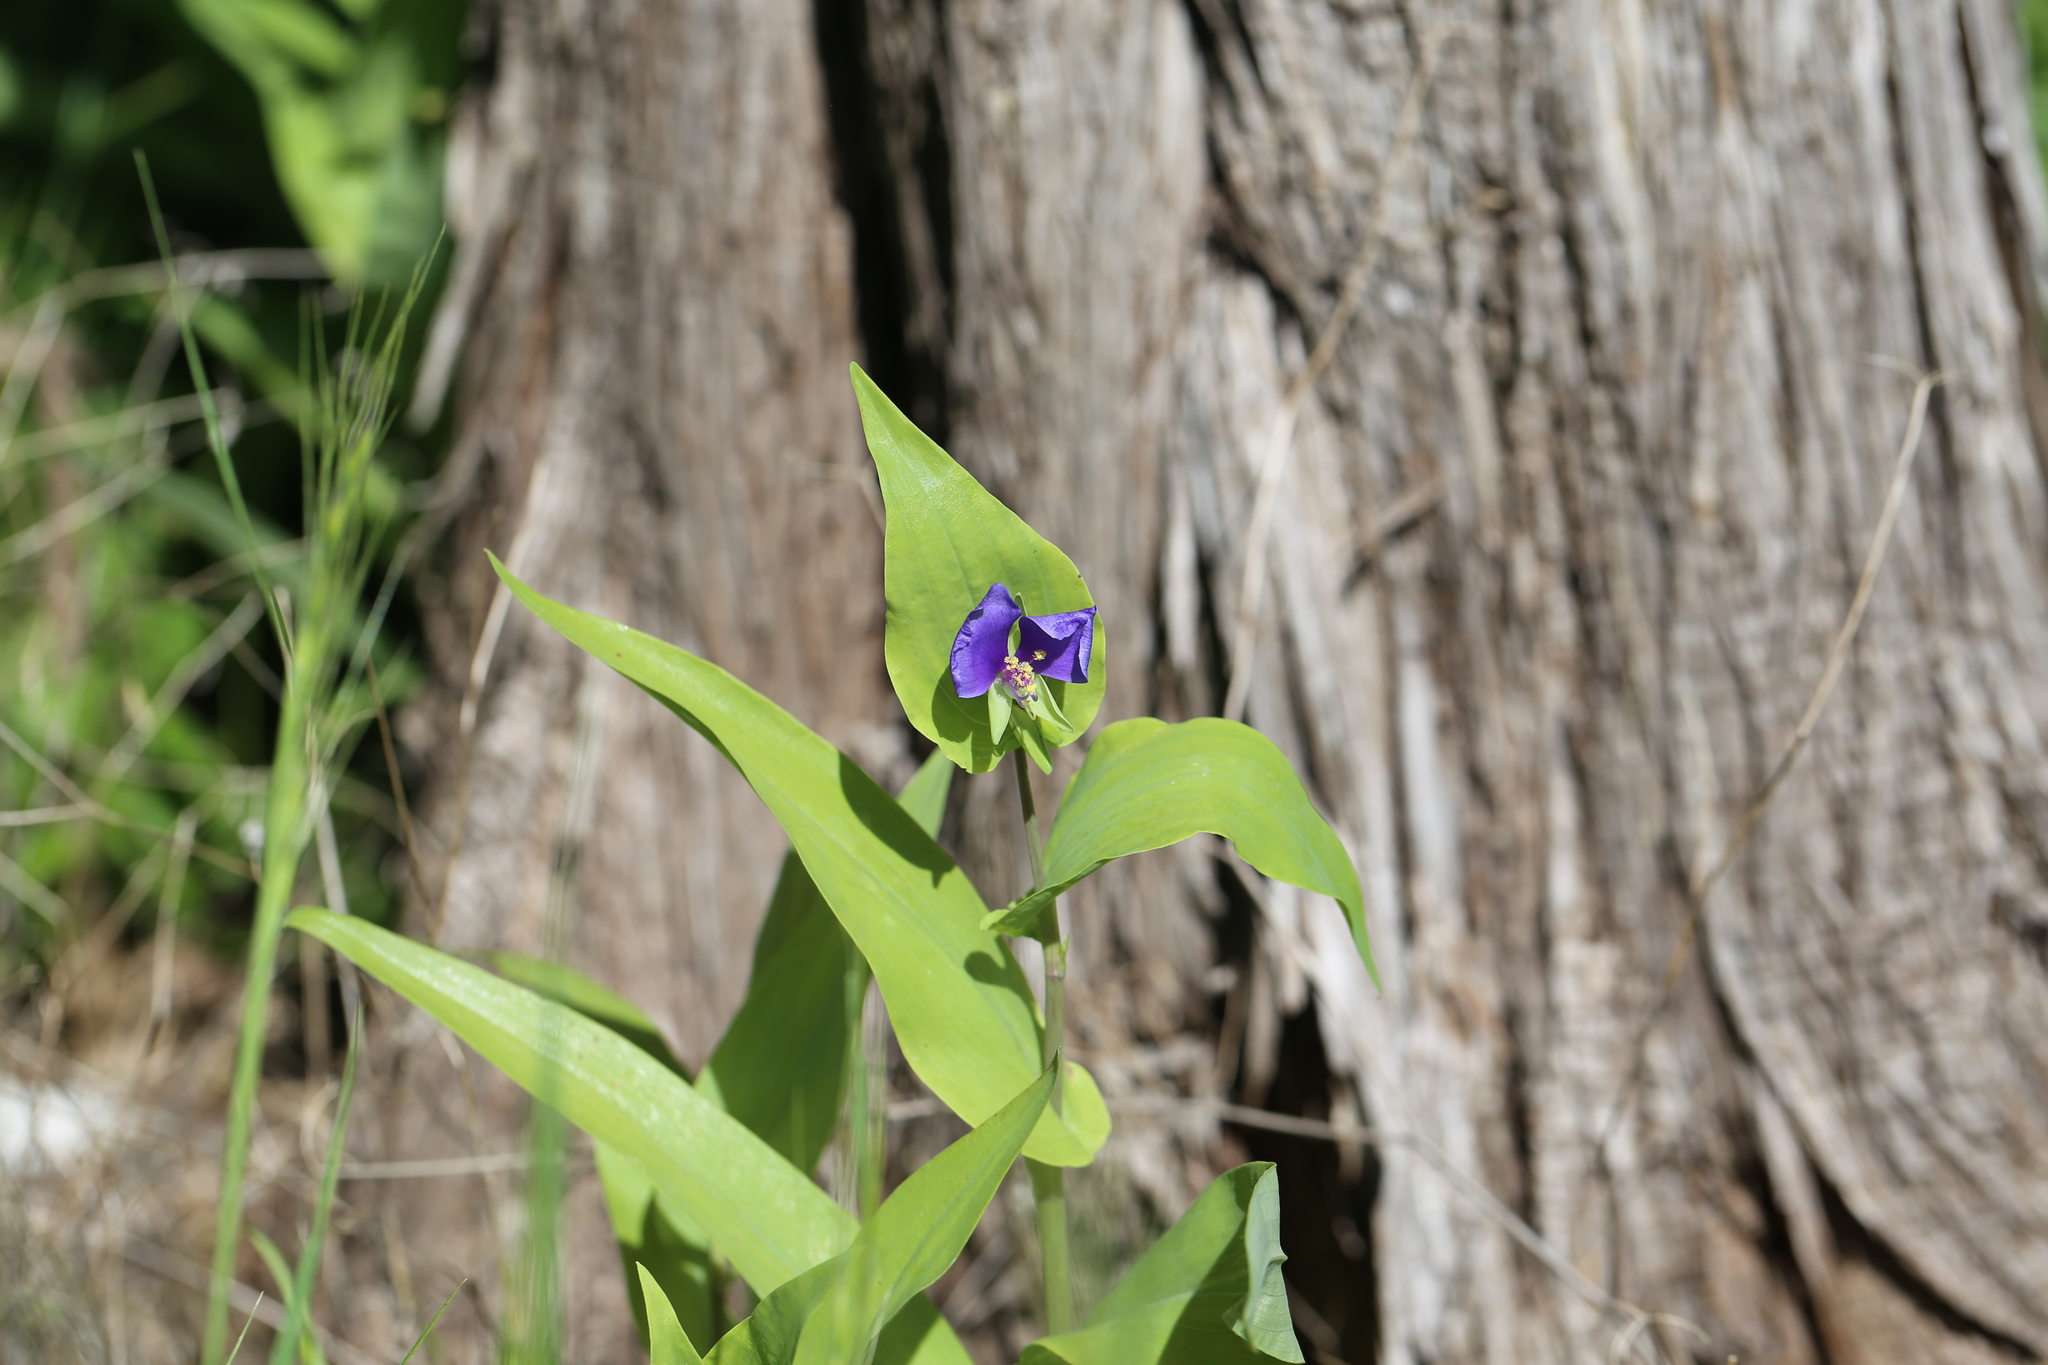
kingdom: Plantae
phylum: Tracheophyta
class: Liliopsida
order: Commelinales
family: Commelinaceae
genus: Tinantia
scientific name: Tinantia anomala
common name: False dayflower
